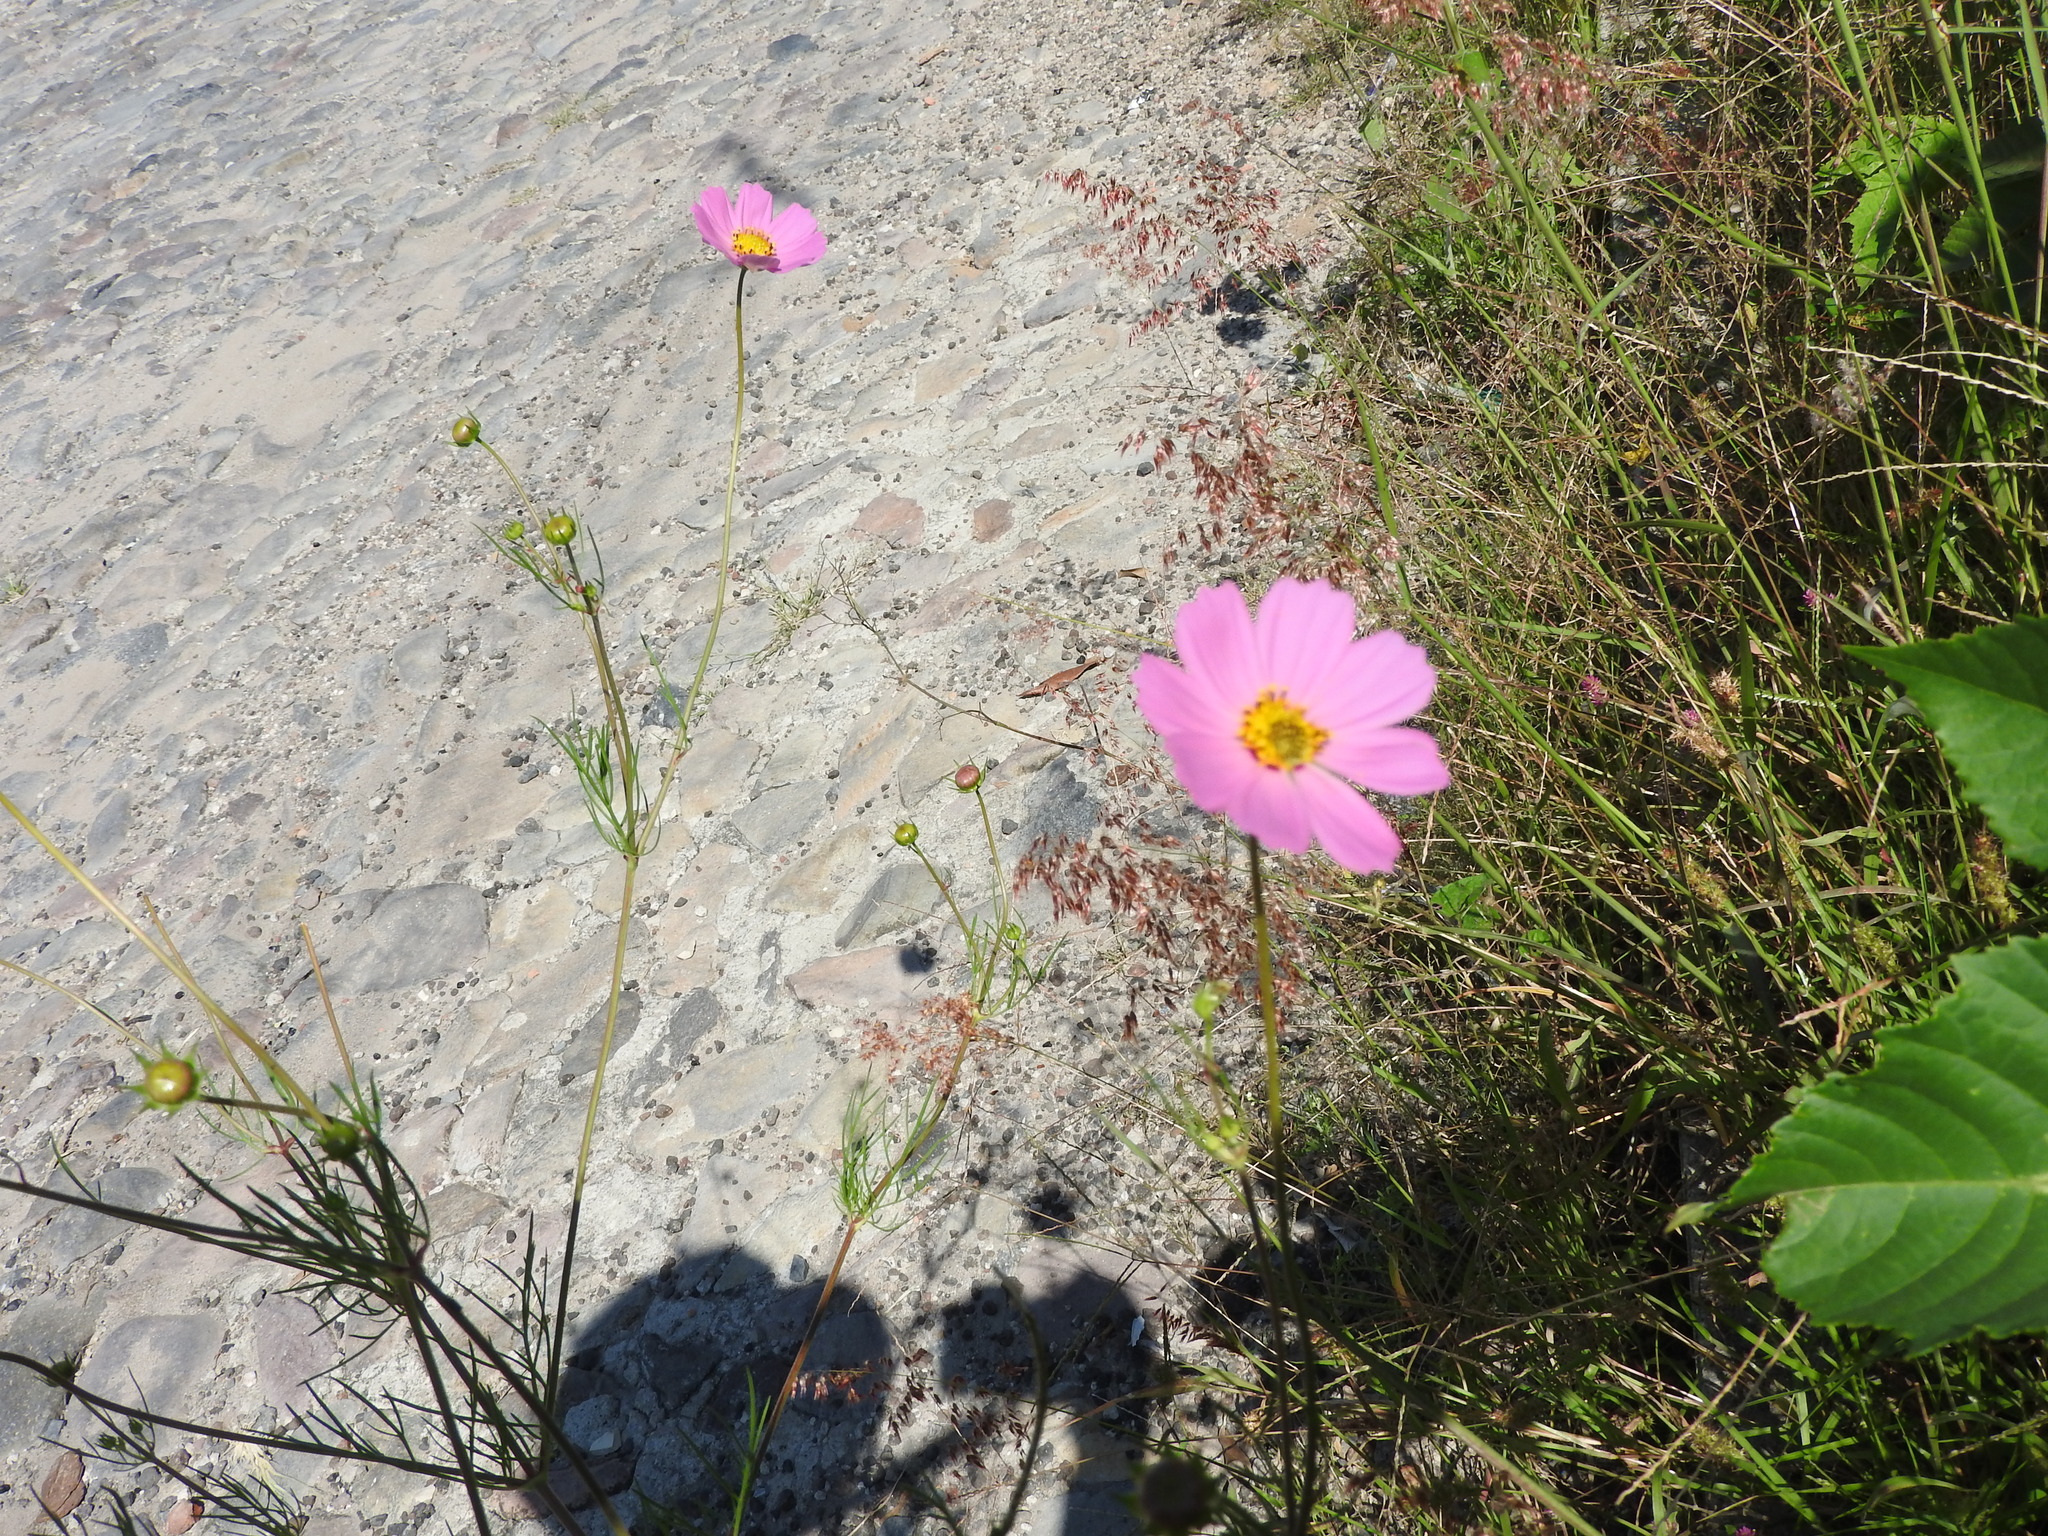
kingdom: Plantae
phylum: Tracheophyta
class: Magnoliopsida
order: Asterales
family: Asteraceae
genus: Cosmos
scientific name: Cosmos bipinnatus
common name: Garden cosmos
